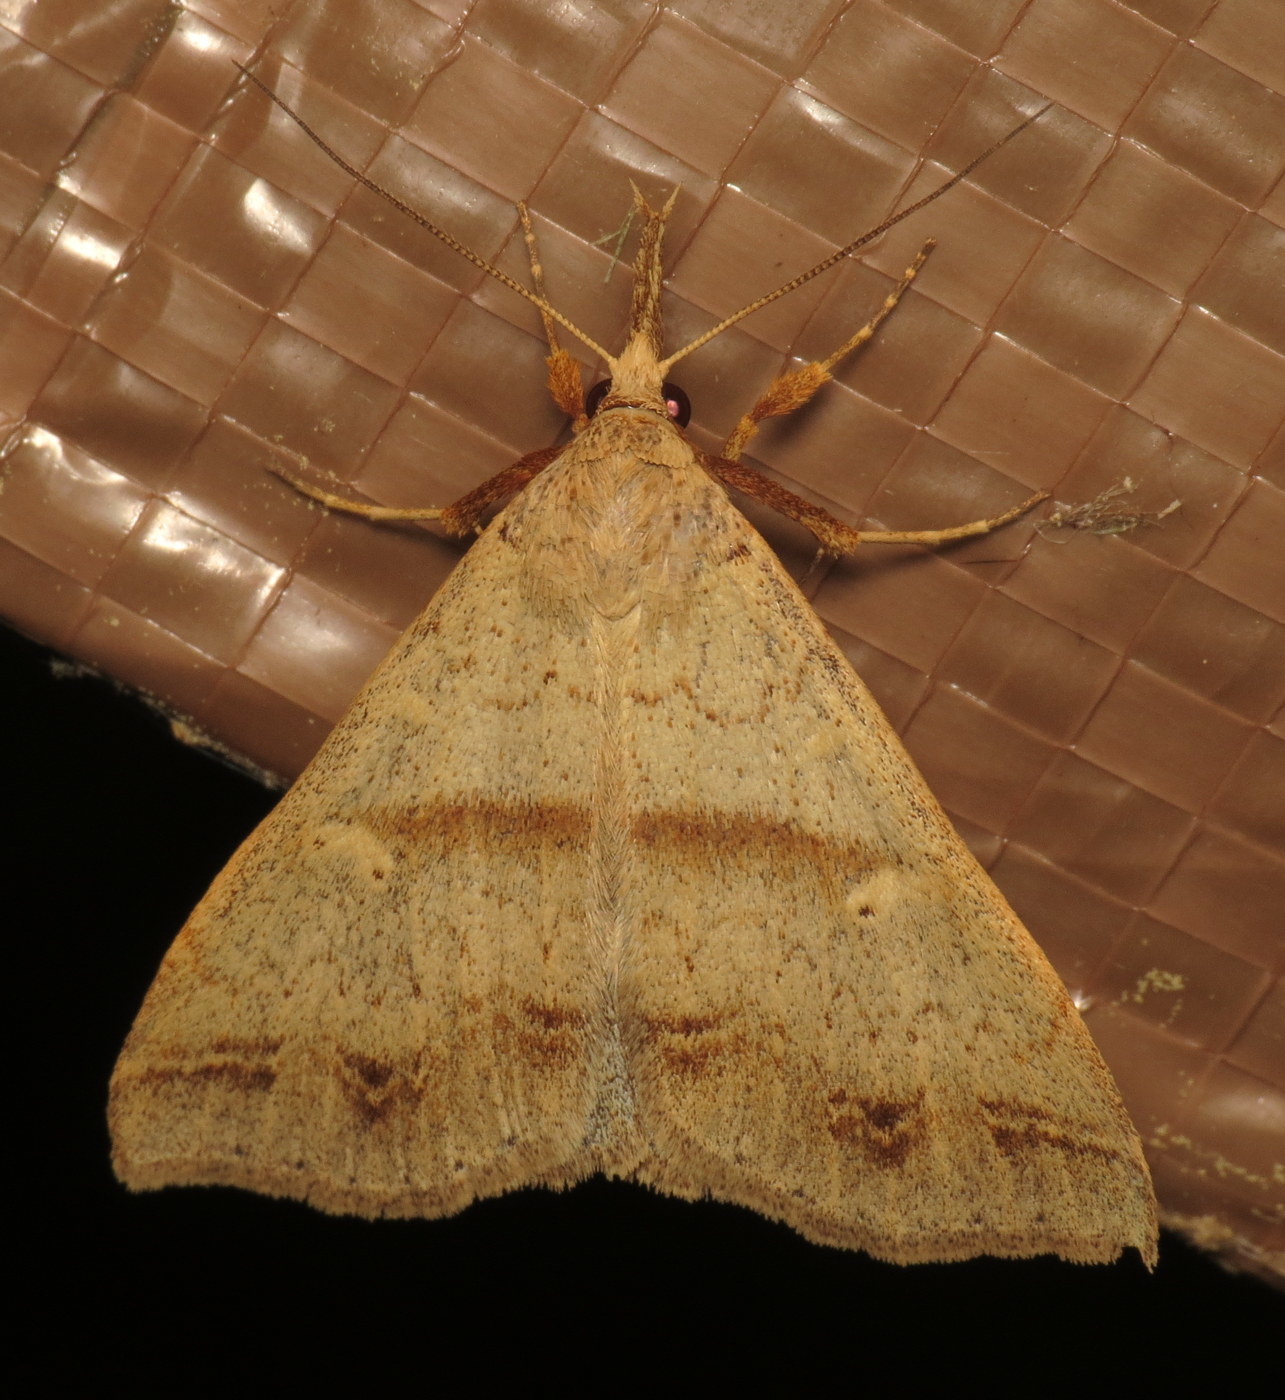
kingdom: Animalia
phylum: Arthropoda
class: Insecta
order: Lepidoptera
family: Erebidae
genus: Renia
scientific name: Renia discoloralis
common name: Discolored renia moth
